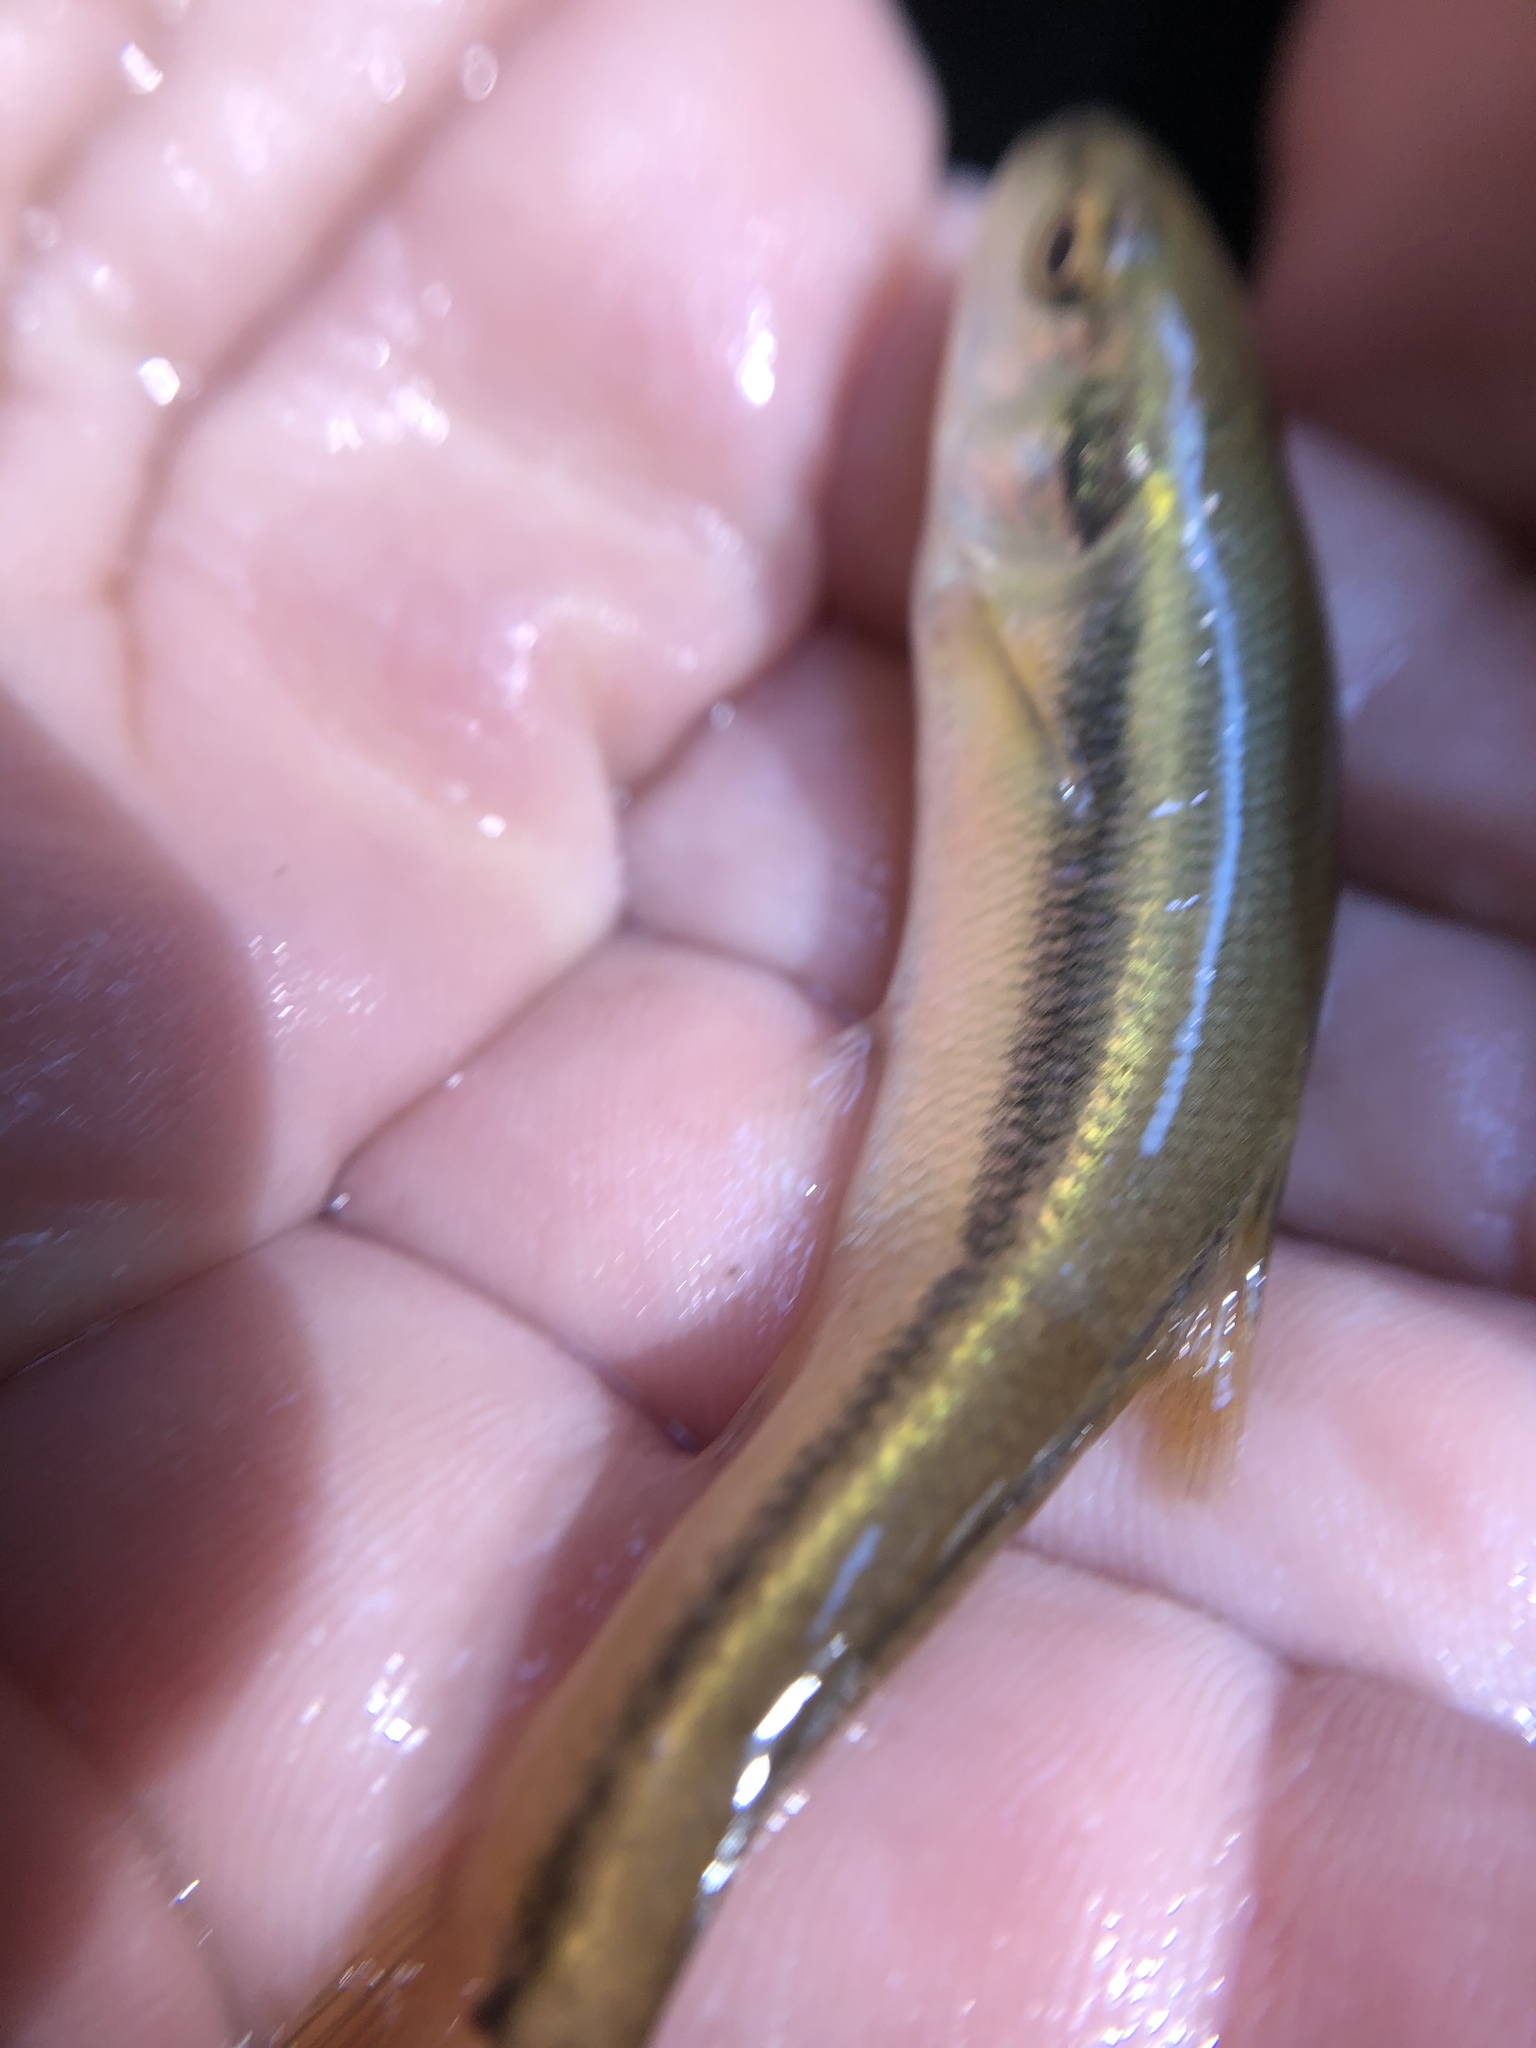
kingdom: Animalia
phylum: Chordata
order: Cypriniformes
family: Cyprinidae
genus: Semotilus
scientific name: Semotilus atromaculatus
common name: Creek chub
